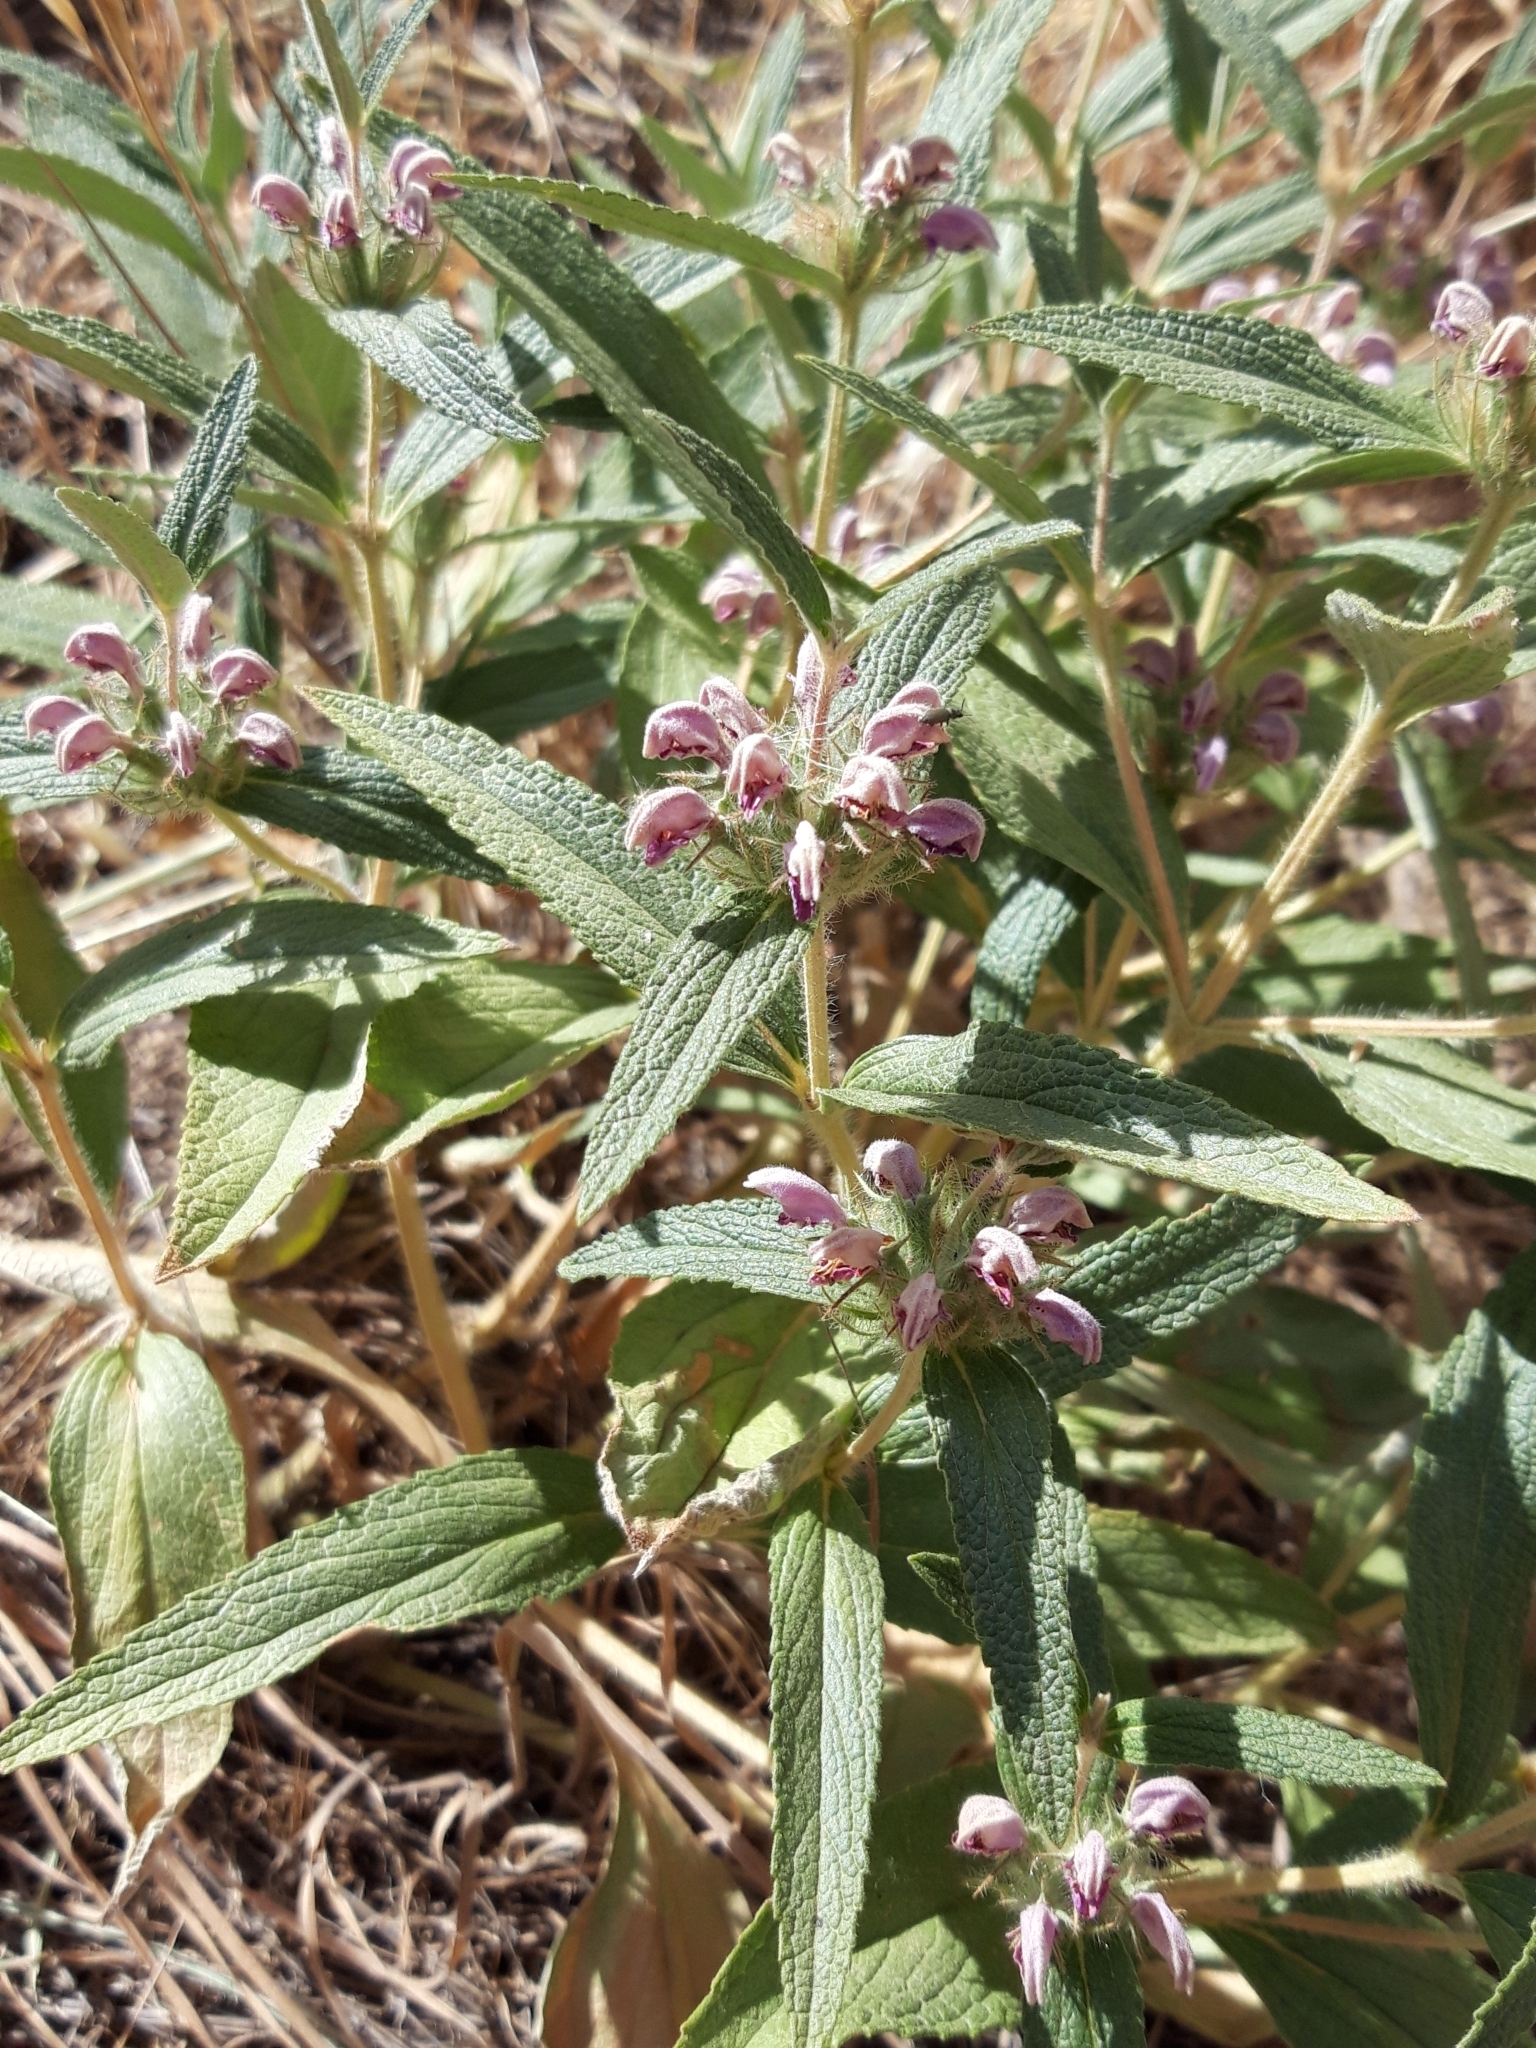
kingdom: Plantae
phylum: Tracheophyta
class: Magnoliopsida
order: Lamiales
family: Lamiaceae
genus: Phlomis
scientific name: Phlomis herba-venti
